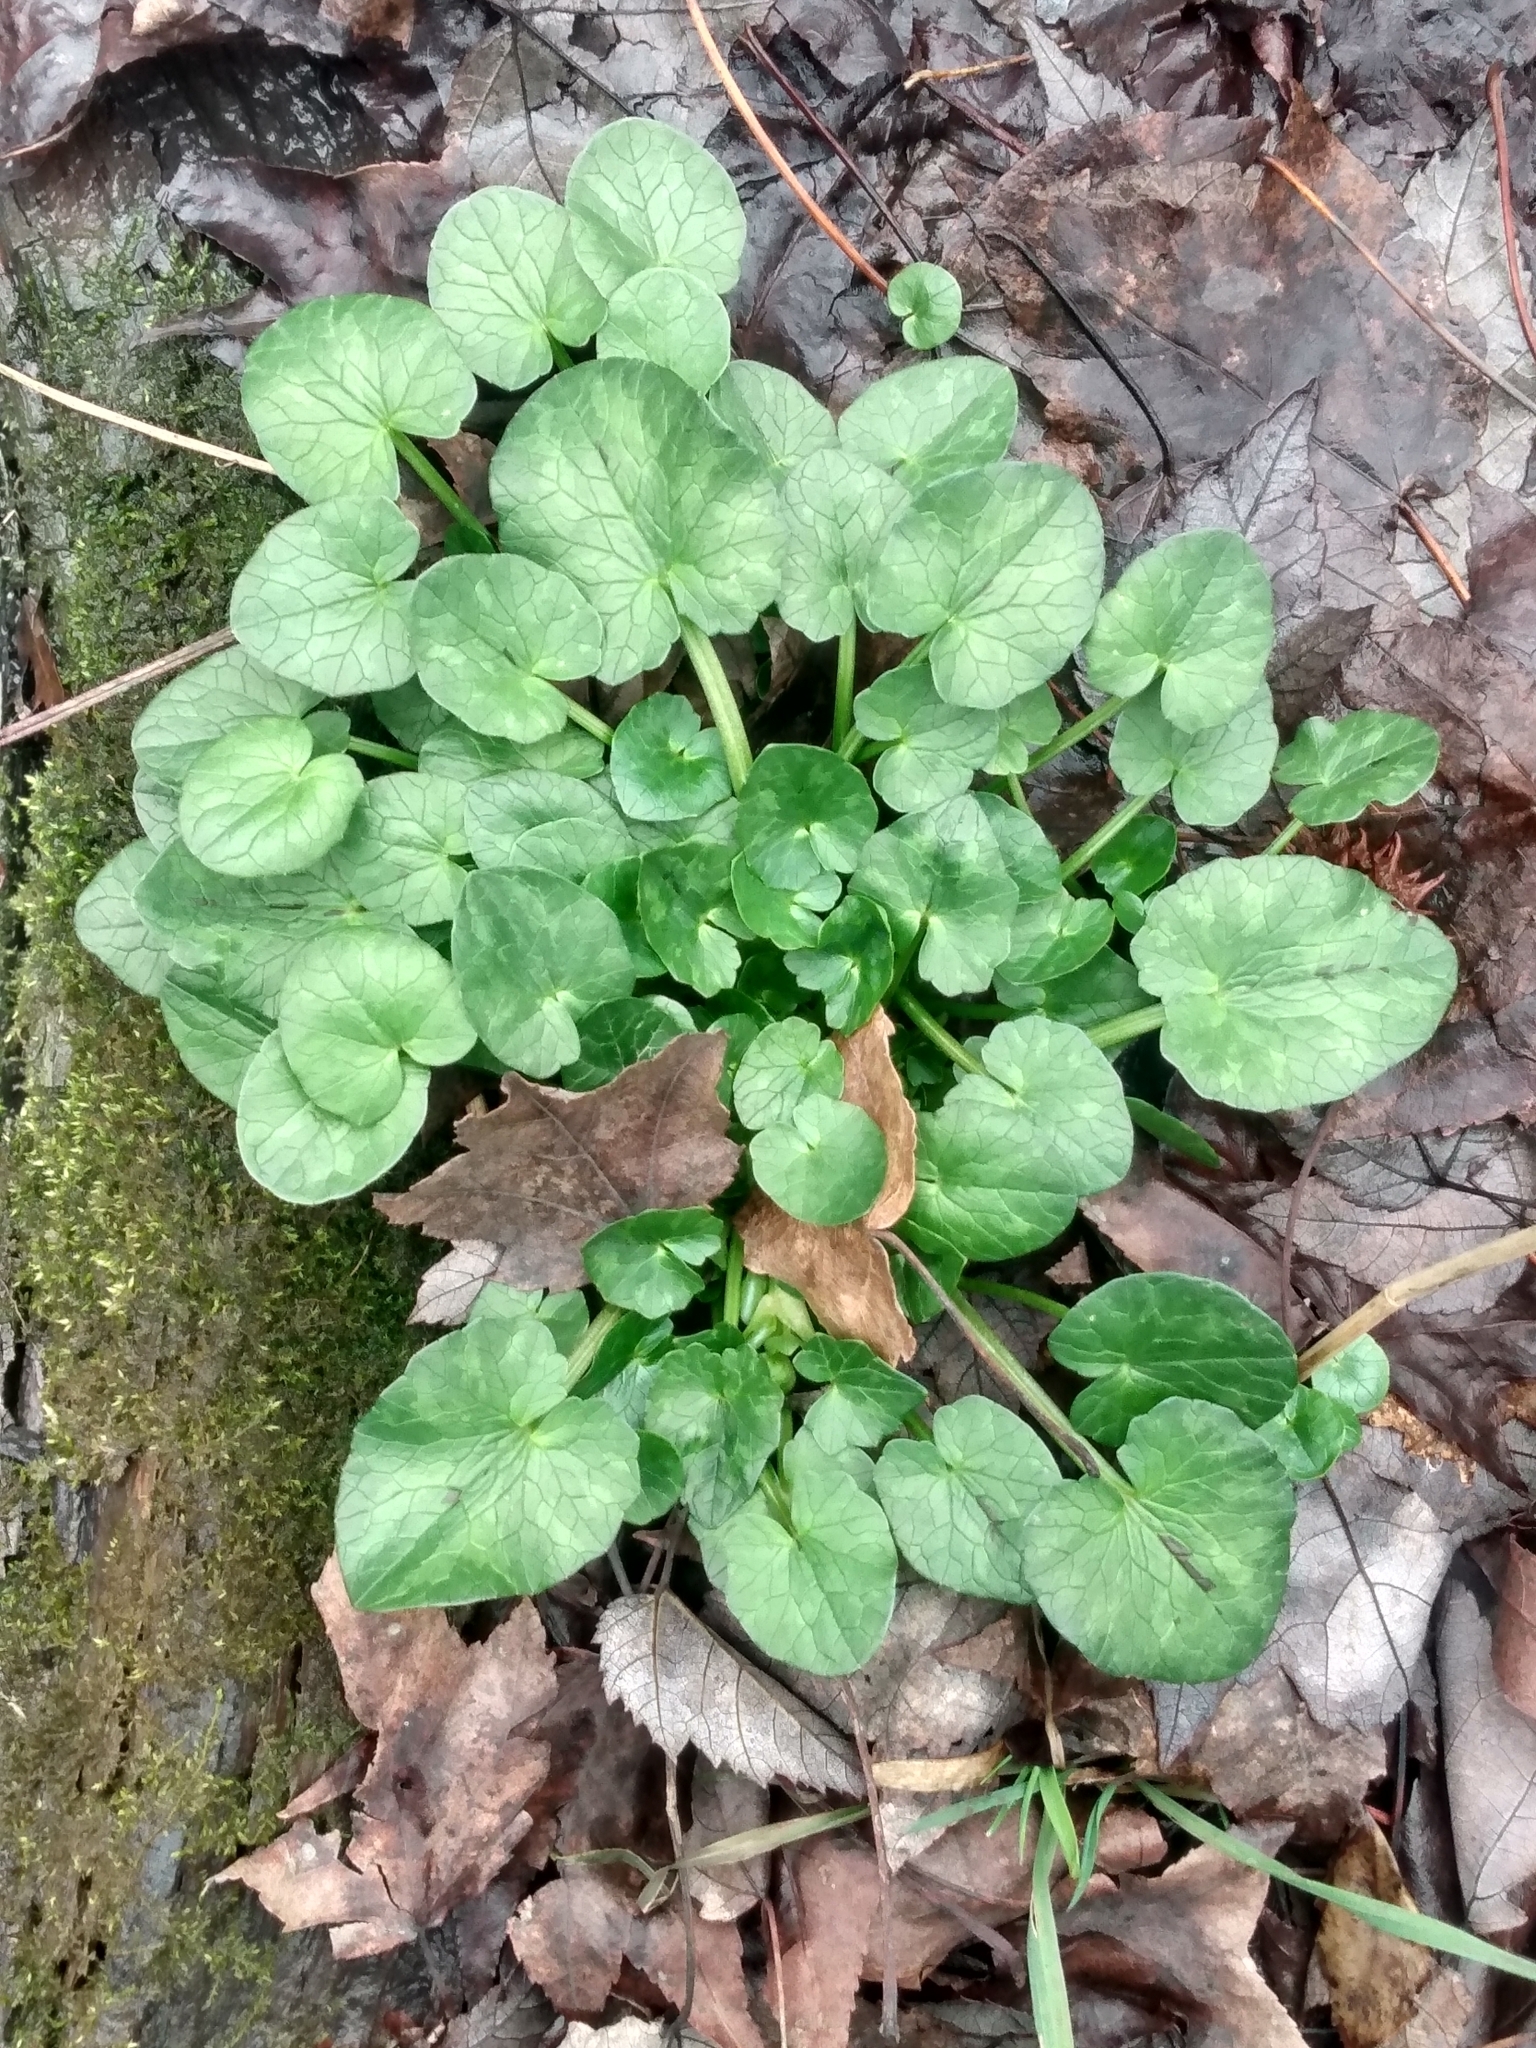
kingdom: Plantae
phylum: Tracheophyta
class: Magnoliopsida
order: Ranunculales
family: Ranunculaceae
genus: Ficaria
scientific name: Ficaria verna
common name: Lesser celandine
